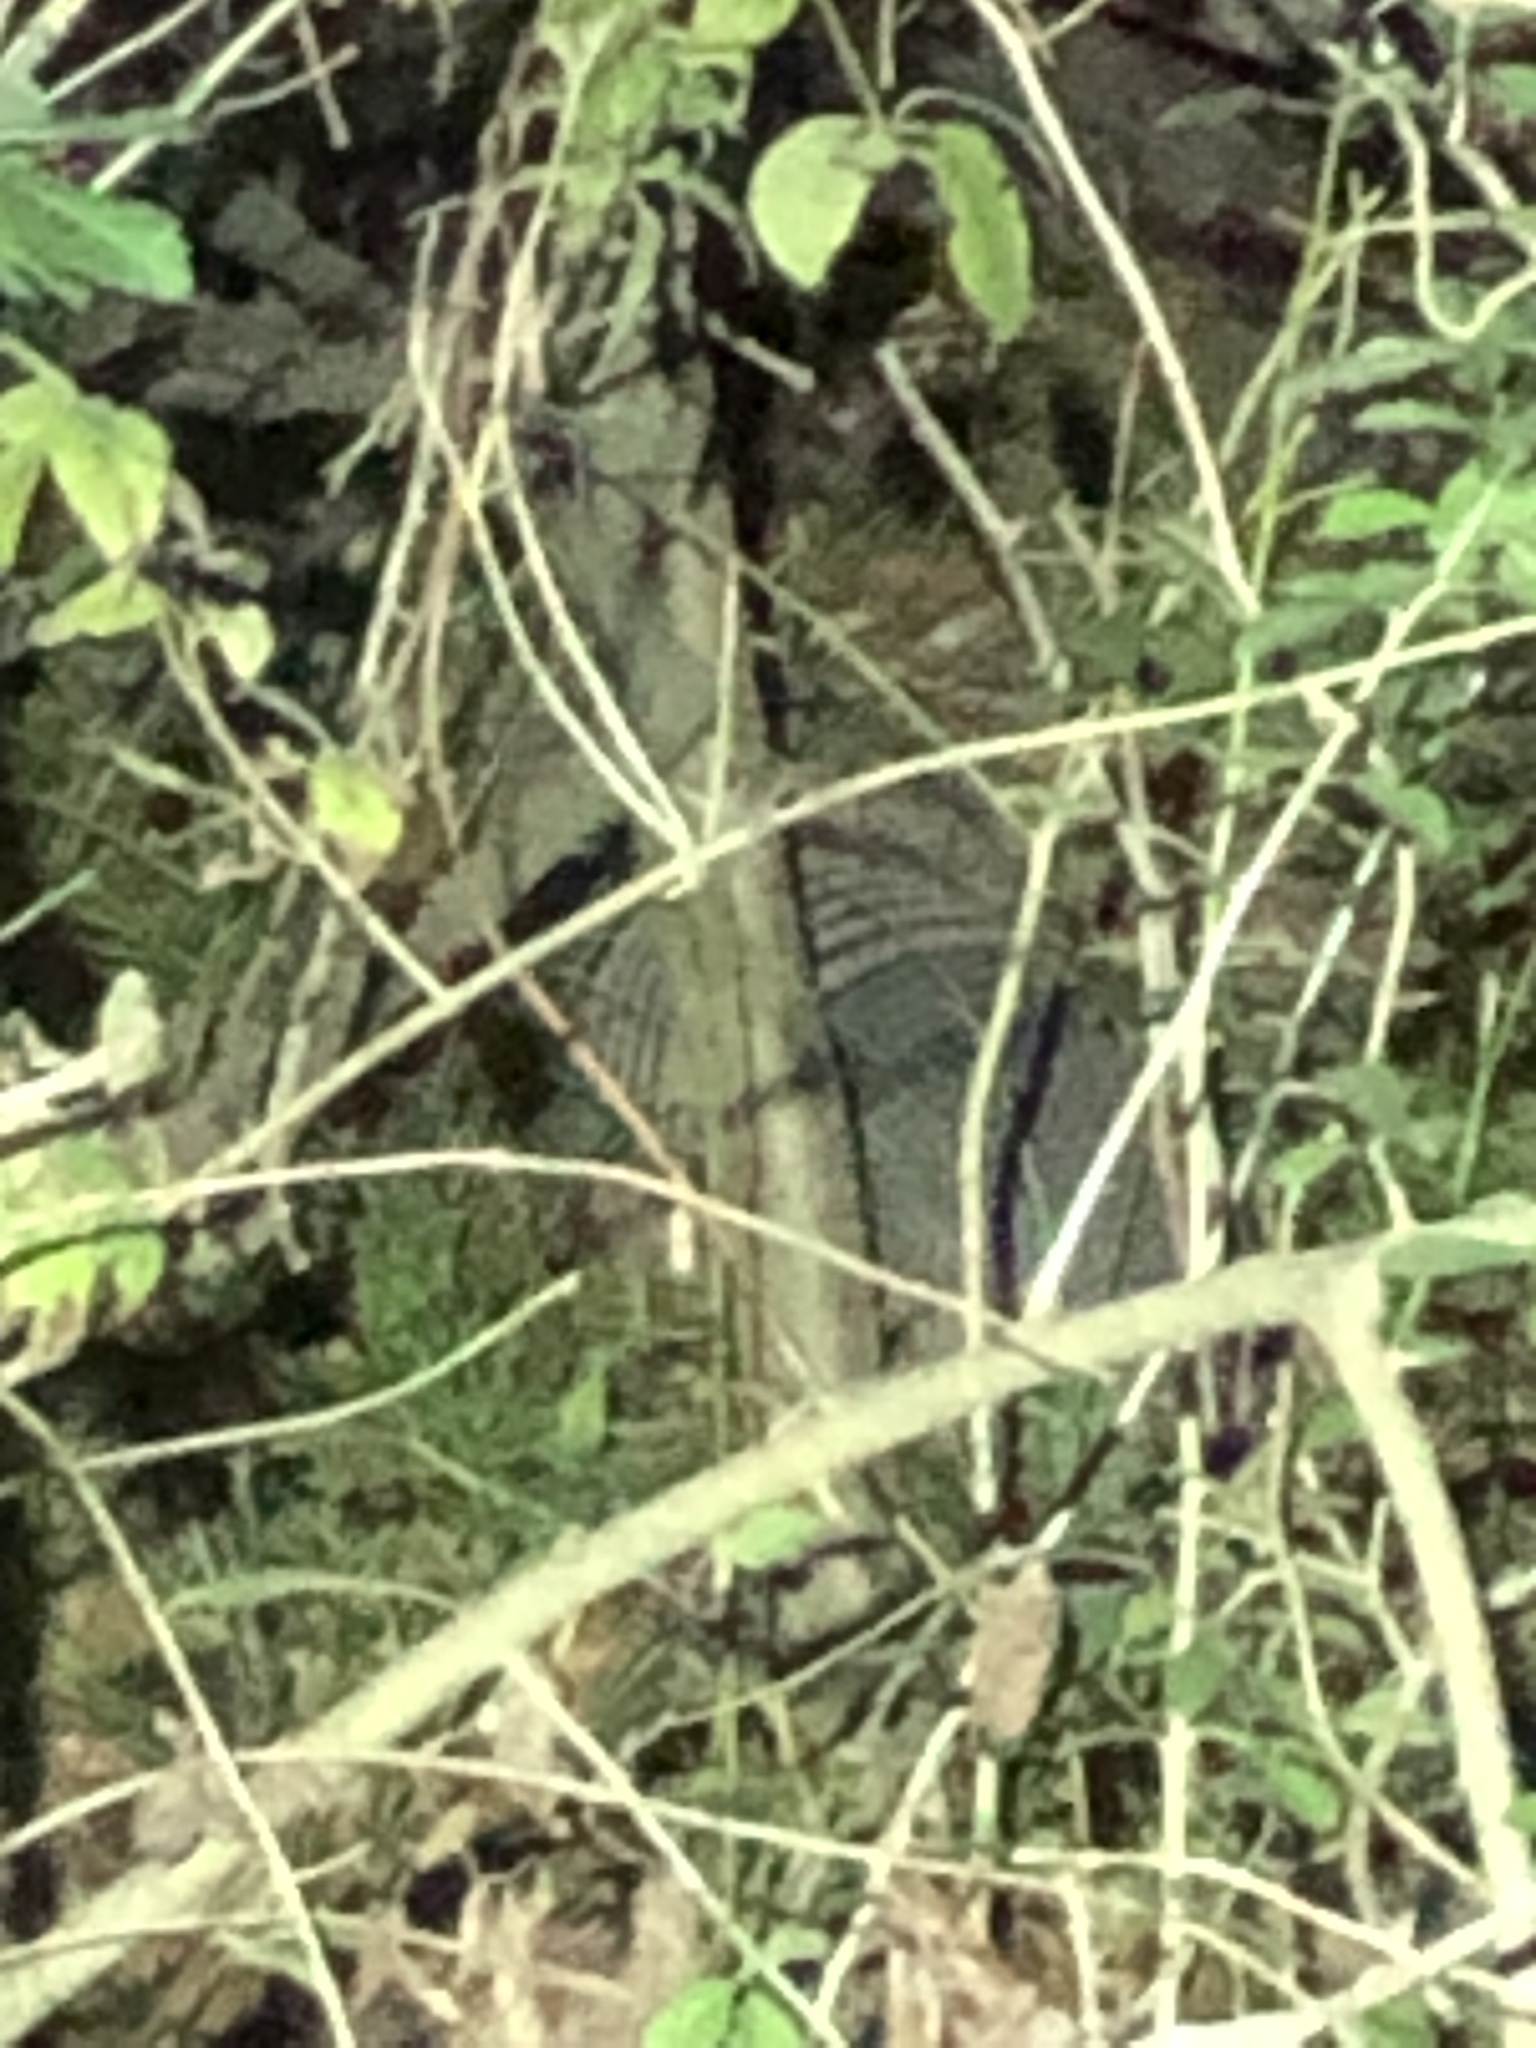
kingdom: Animalia
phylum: Chordata
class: Mammalia
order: Cingulata
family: Dasypodidae
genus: Dasypus
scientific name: Dasypus novemcinctus
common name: Nine-banded armadillo
